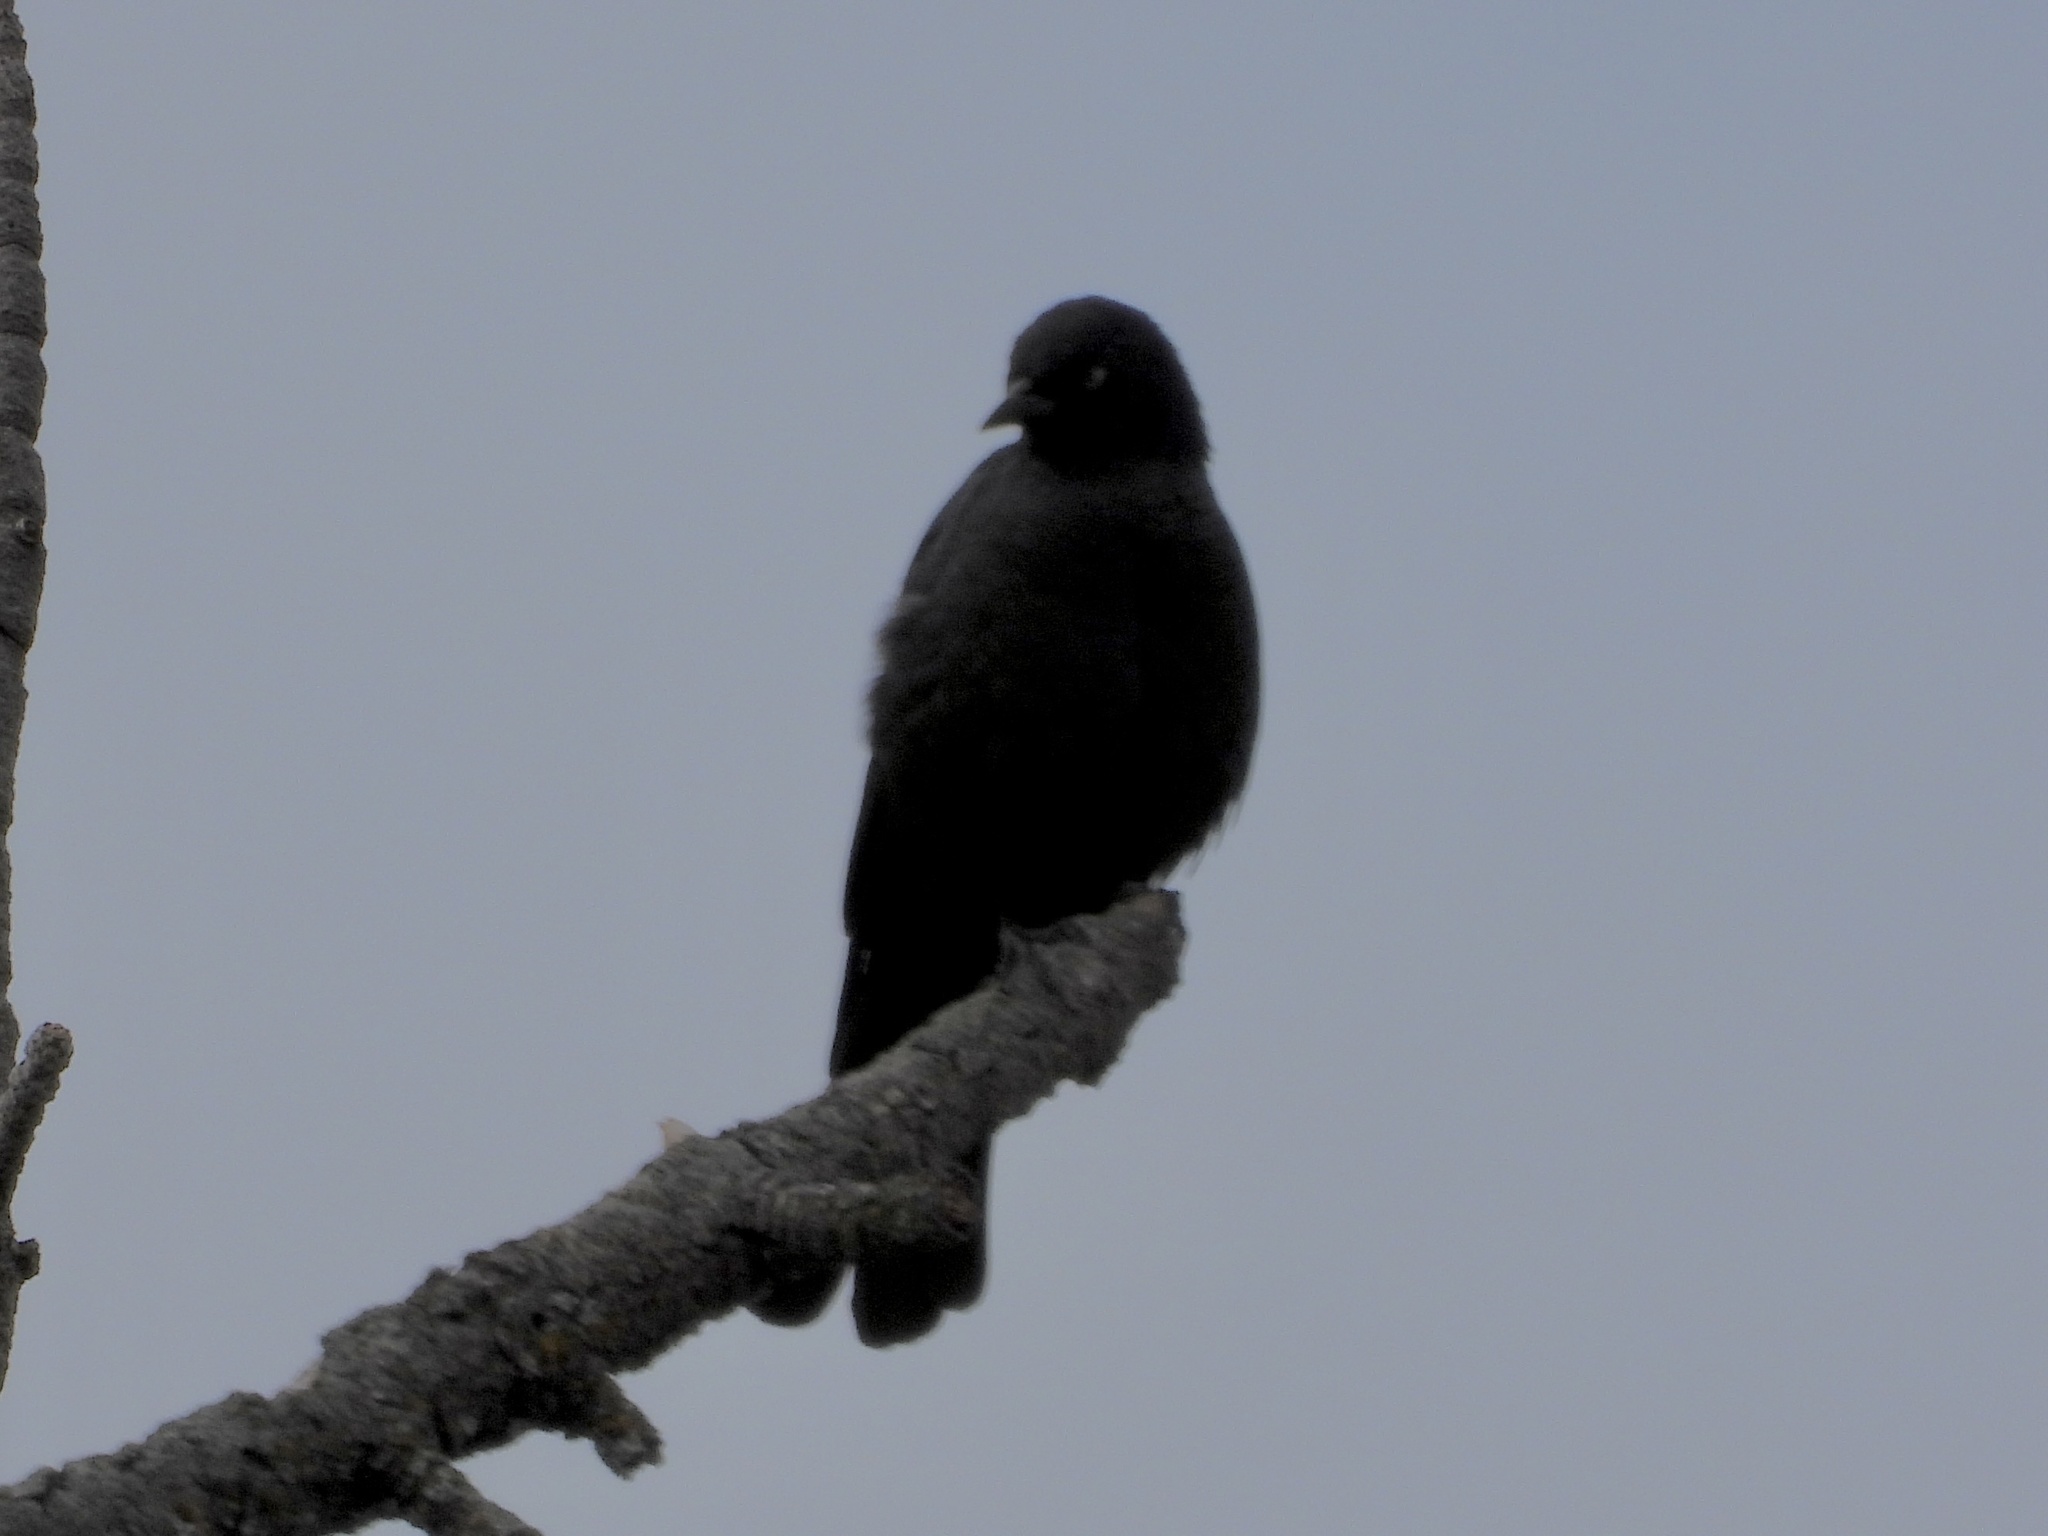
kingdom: Animalia
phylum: Chordata
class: Aves
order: Passeriformes
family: Icteridae
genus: Euphagus
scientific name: Euphagus cyanocephalus
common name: Brewer's blackbird
